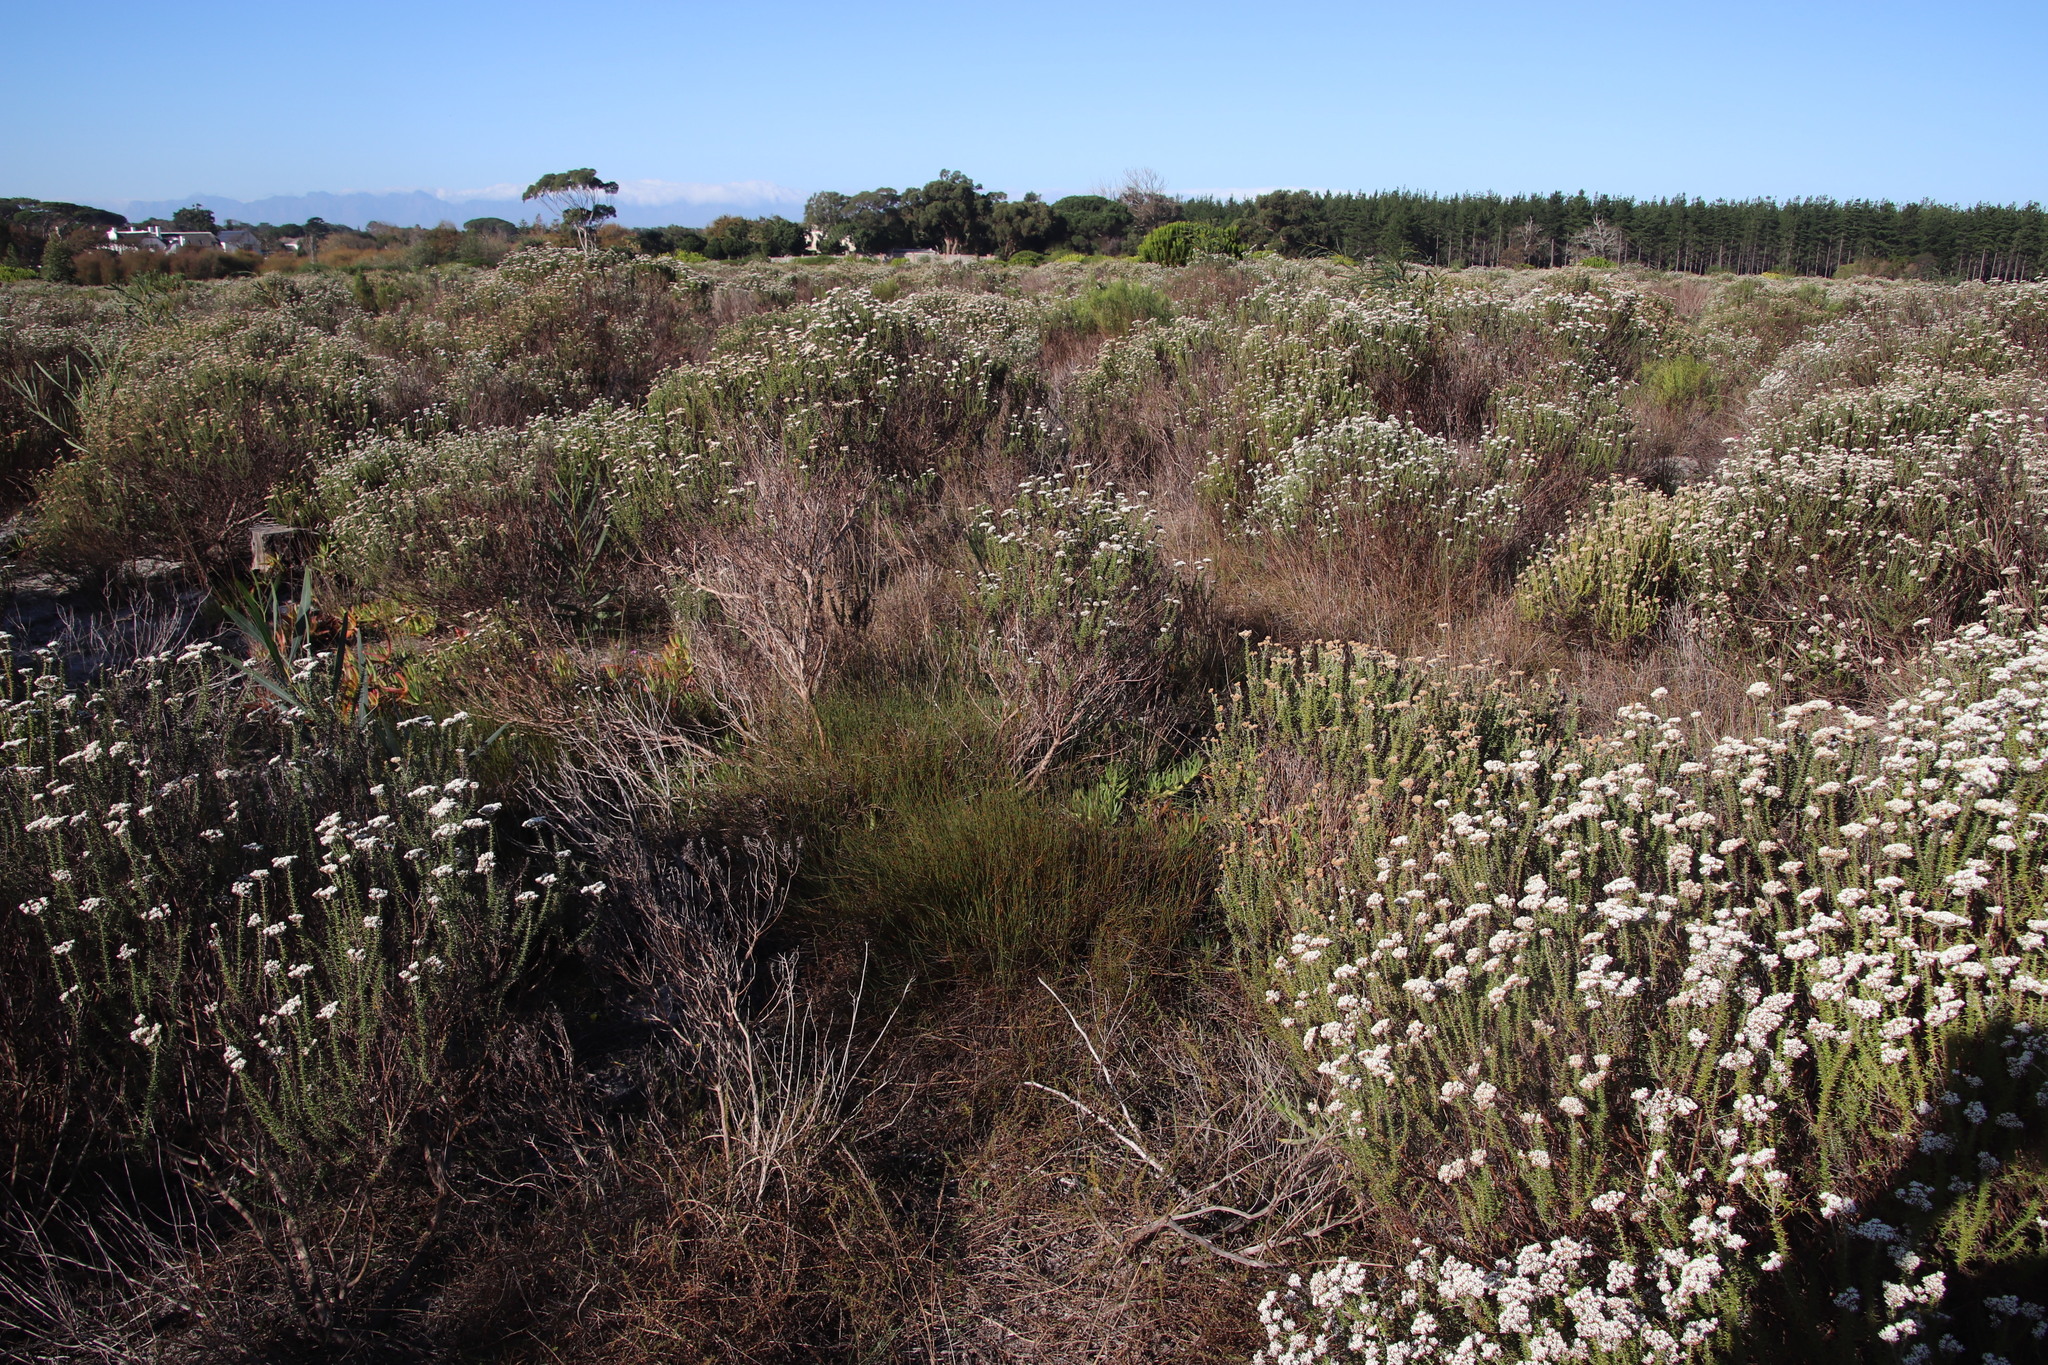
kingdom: Plantae
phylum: Tracheophyta
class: Liliopsida
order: Poales
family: Restionaceae
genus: Willdenowia
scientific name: Willdenowia sulcata
